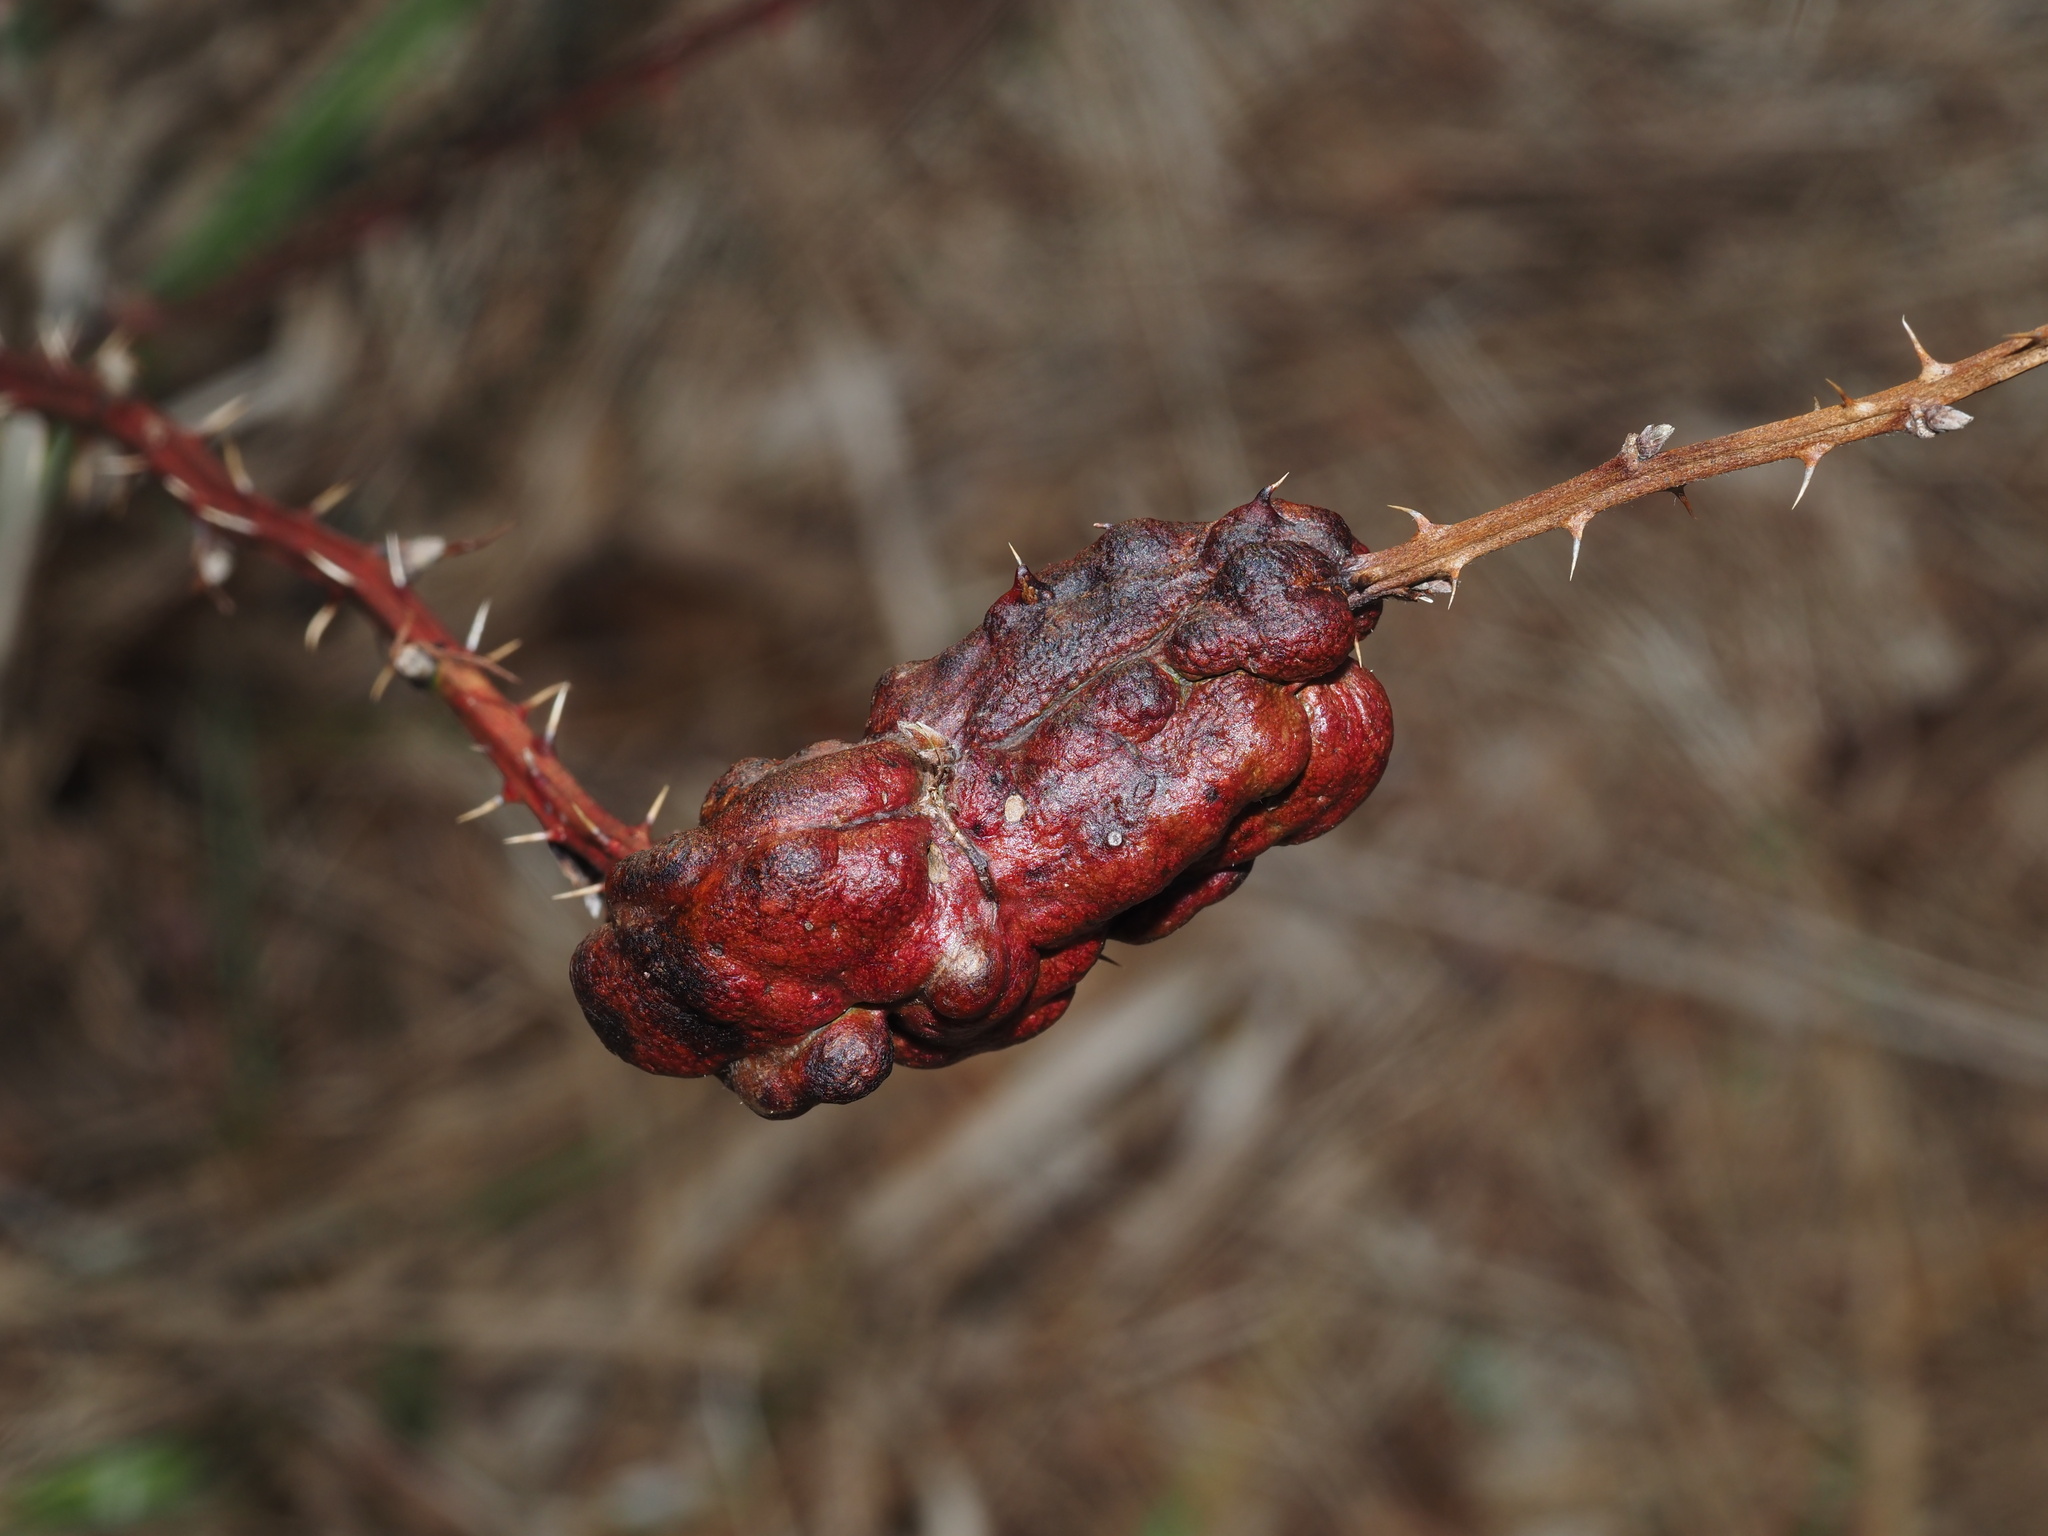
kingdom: Animalia
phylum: Arthropoda
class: Insecta
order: Hymenoptera
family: Cynipidae
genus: Diastrophus
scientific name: Diastrophus
